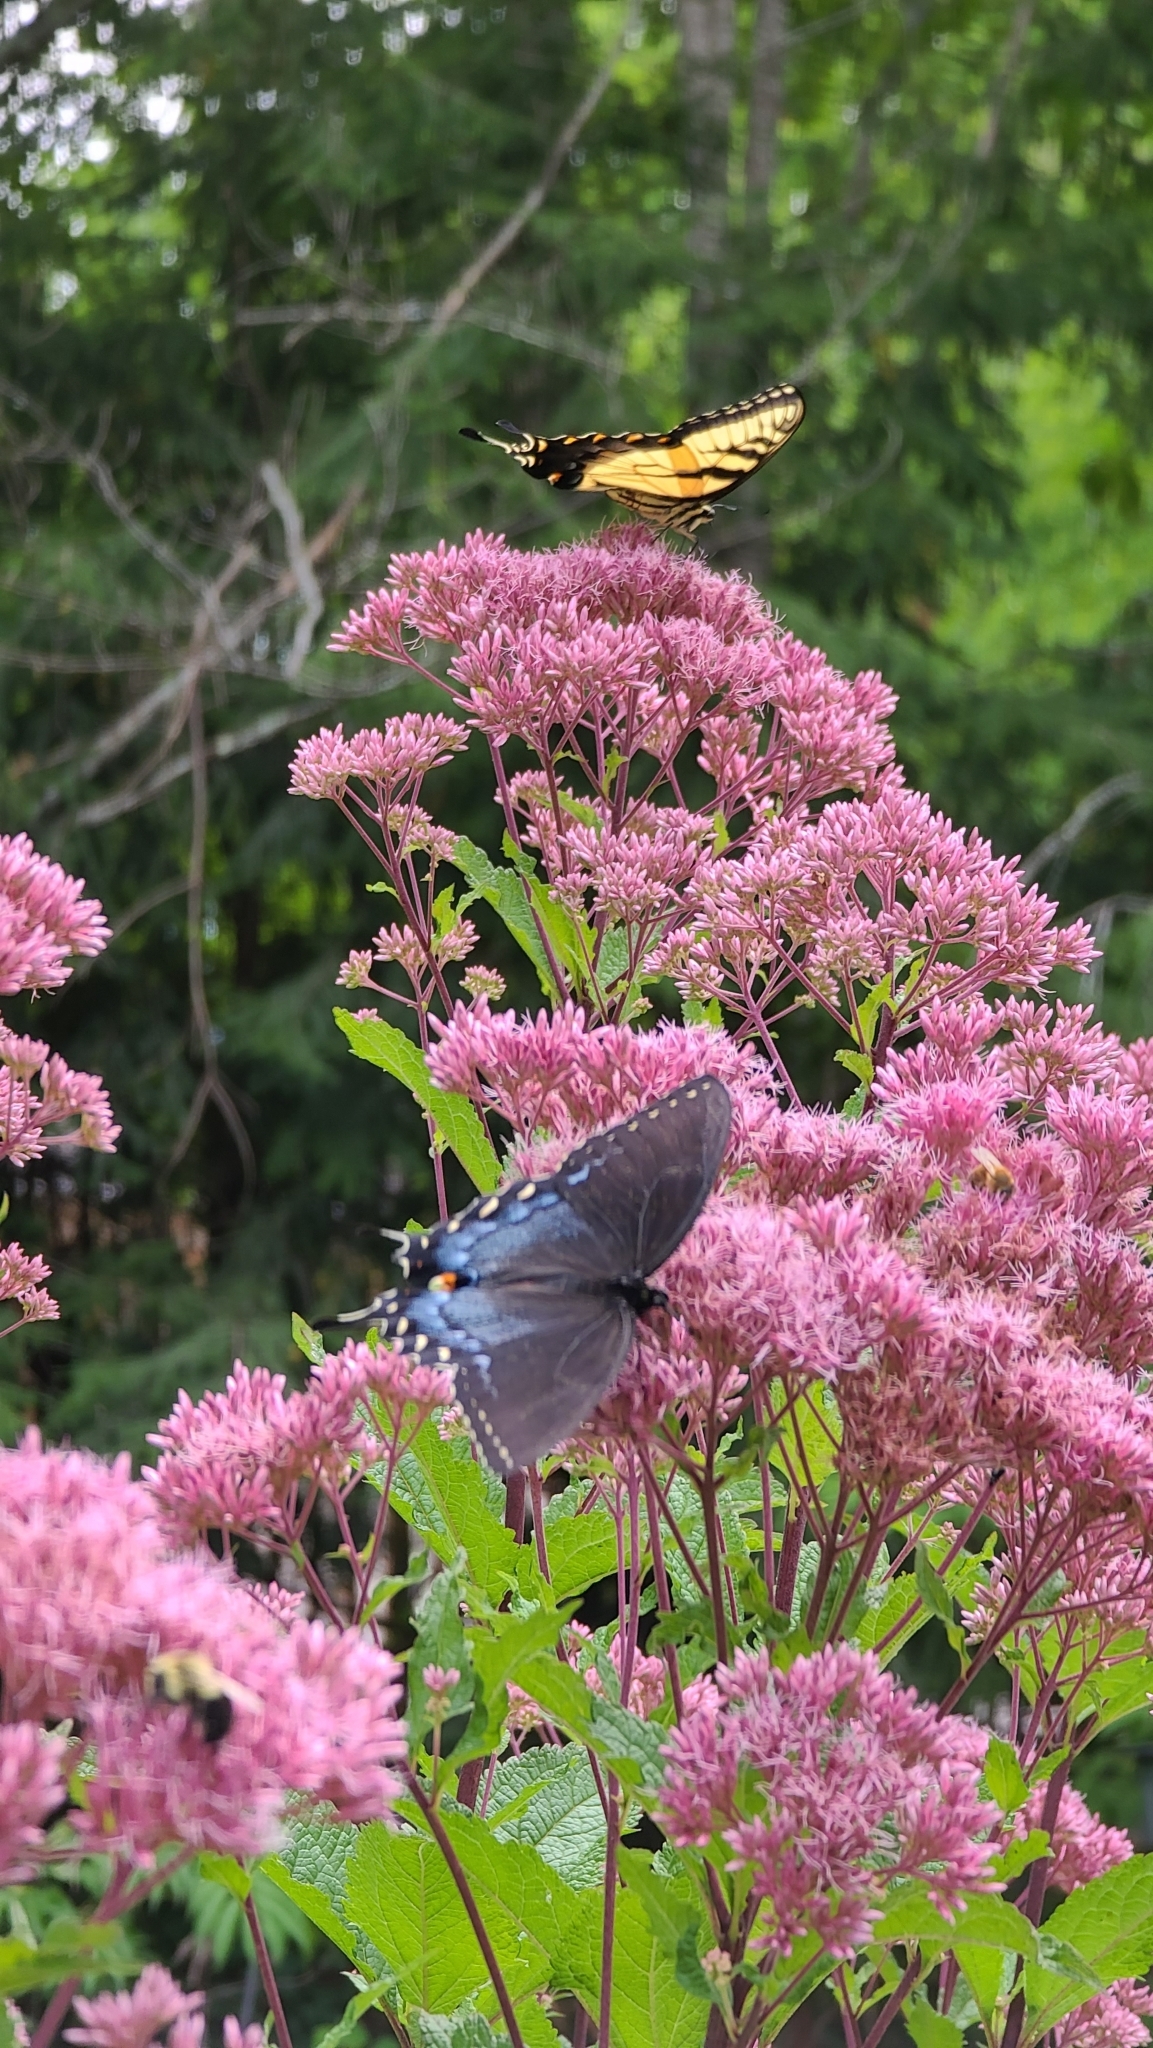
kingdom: Animalia
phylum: Arthropoda
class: Insecta
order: Lepidoptera
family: Papilionidae
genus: Papilio
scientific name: Papilio glaucus
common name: Tiger swallowtail
